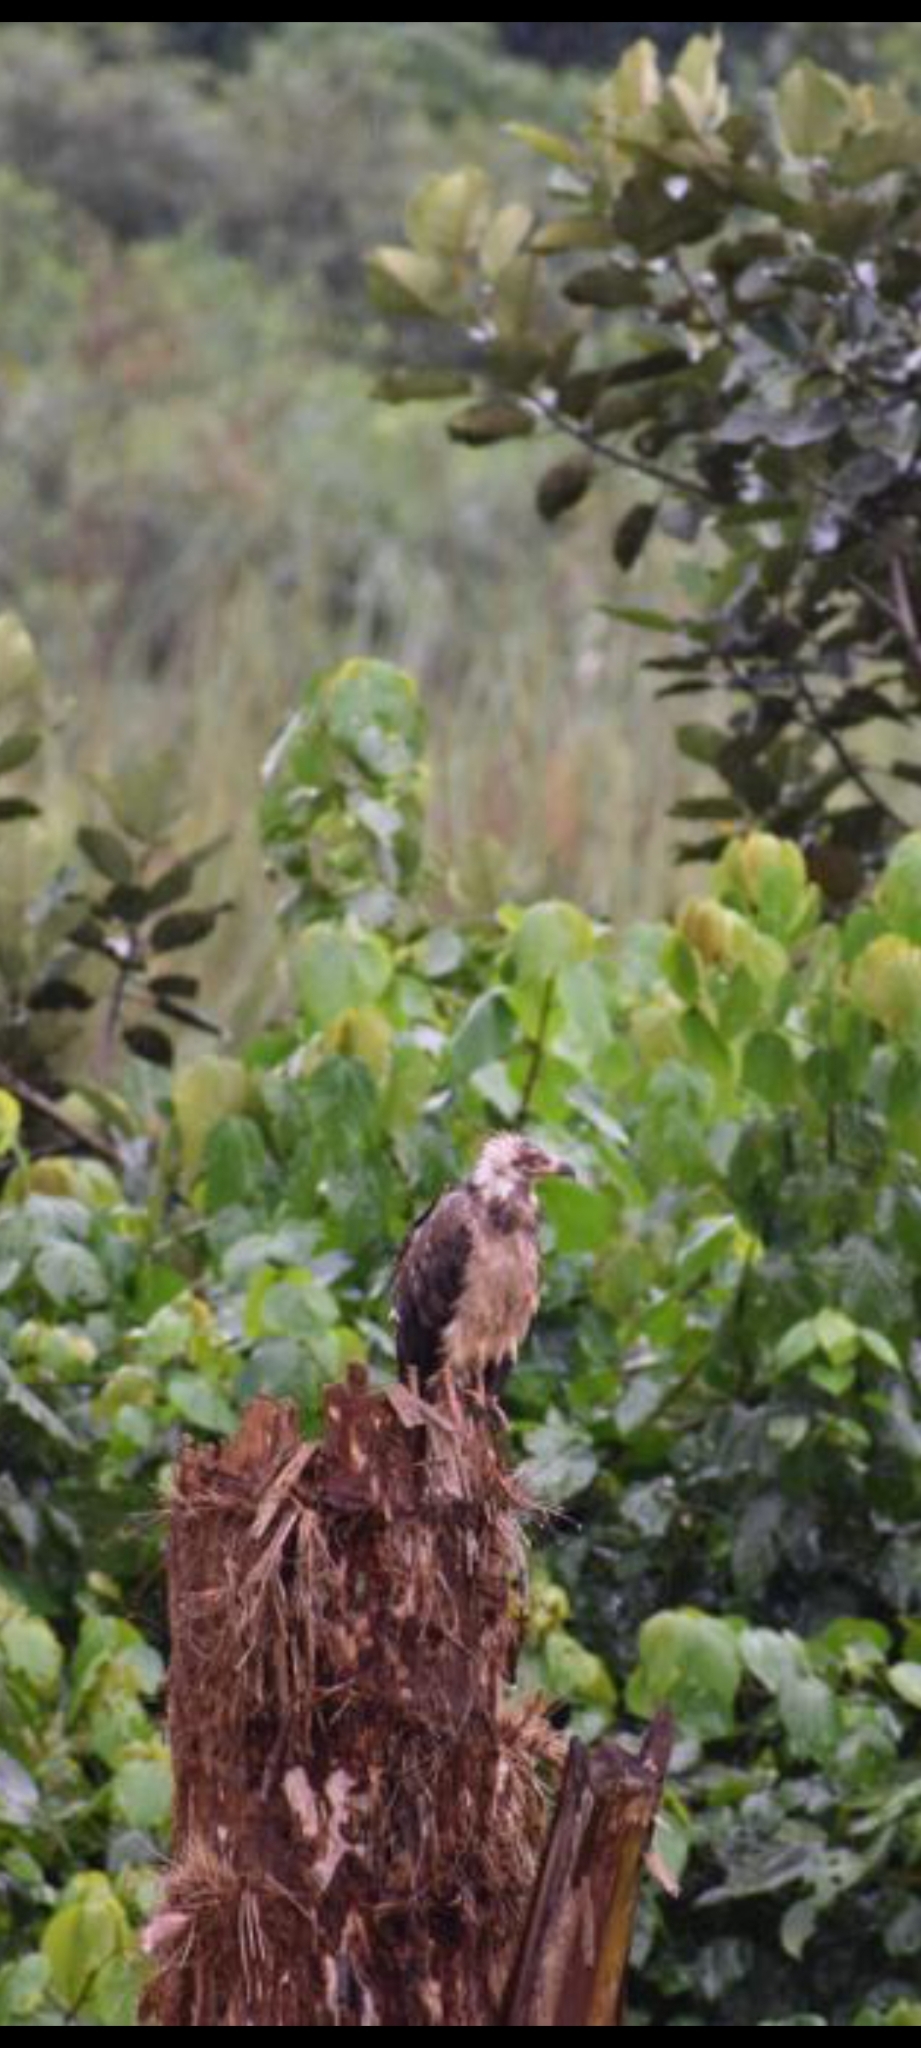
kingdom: Animalia
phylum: Chordata
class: Aves
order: Accipitriformes
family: Accipitridae
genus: Gypohierax
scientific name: Gypohierax angolensis
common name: Palm-nut vulture
